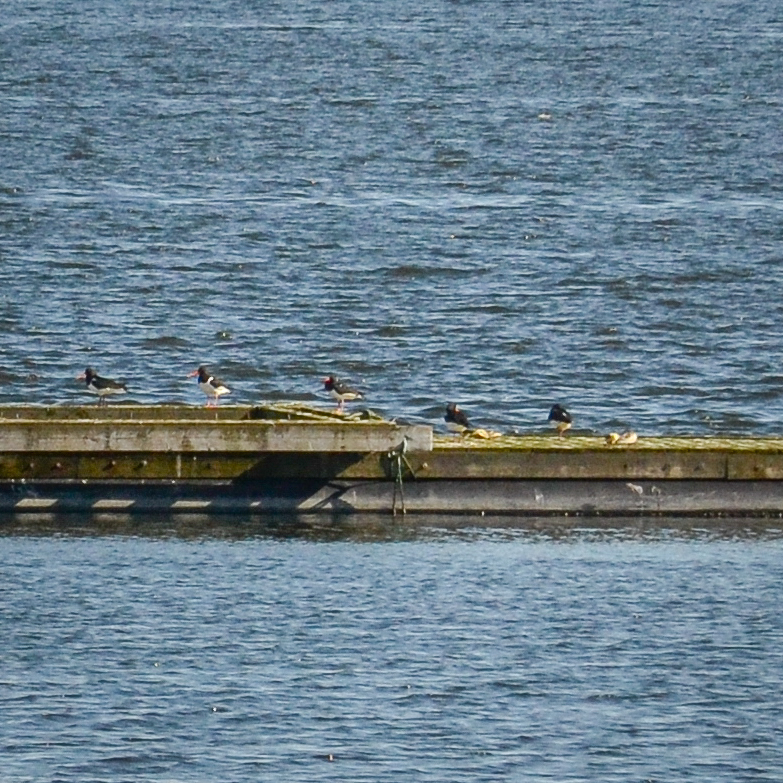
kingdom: Animalia
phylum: Chordata
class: Aves
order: Charadriiformes
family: Haematopodidae
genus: Haematopus
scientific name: Haematopus ostralegus
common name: Eurasian oystercatcher
